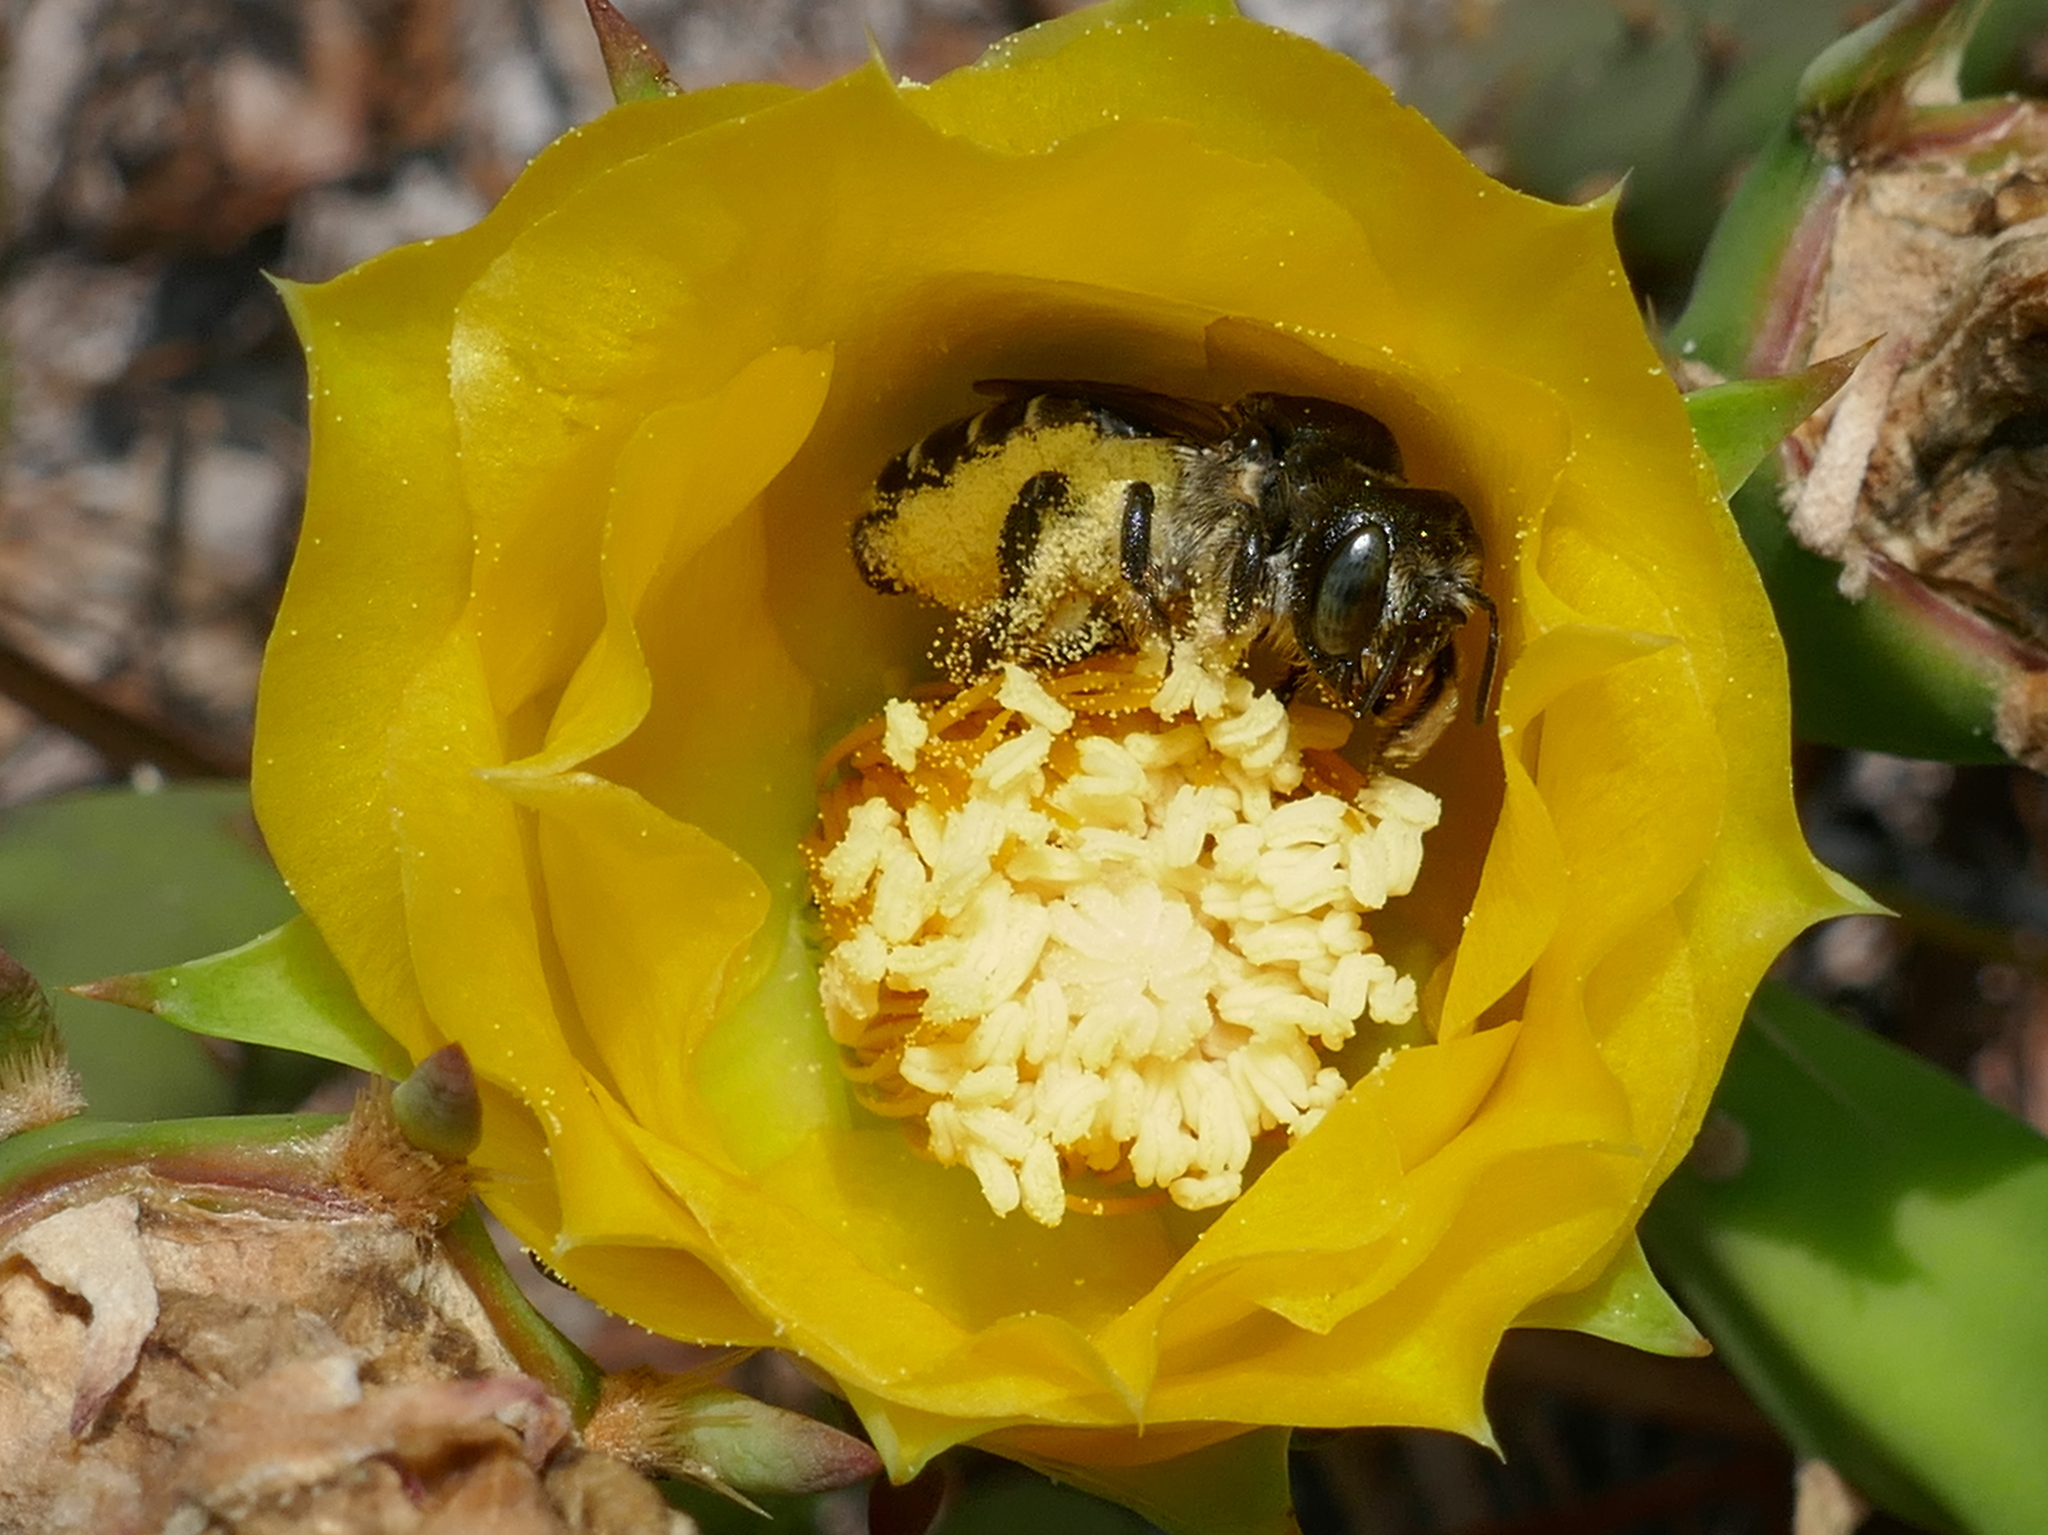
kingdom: Animalia
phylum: Arthropoda
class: Insecta
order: Hymenoptera
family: Megachilidae
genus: Lithurgopsis
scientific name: Lithurgopsis gibbosa
